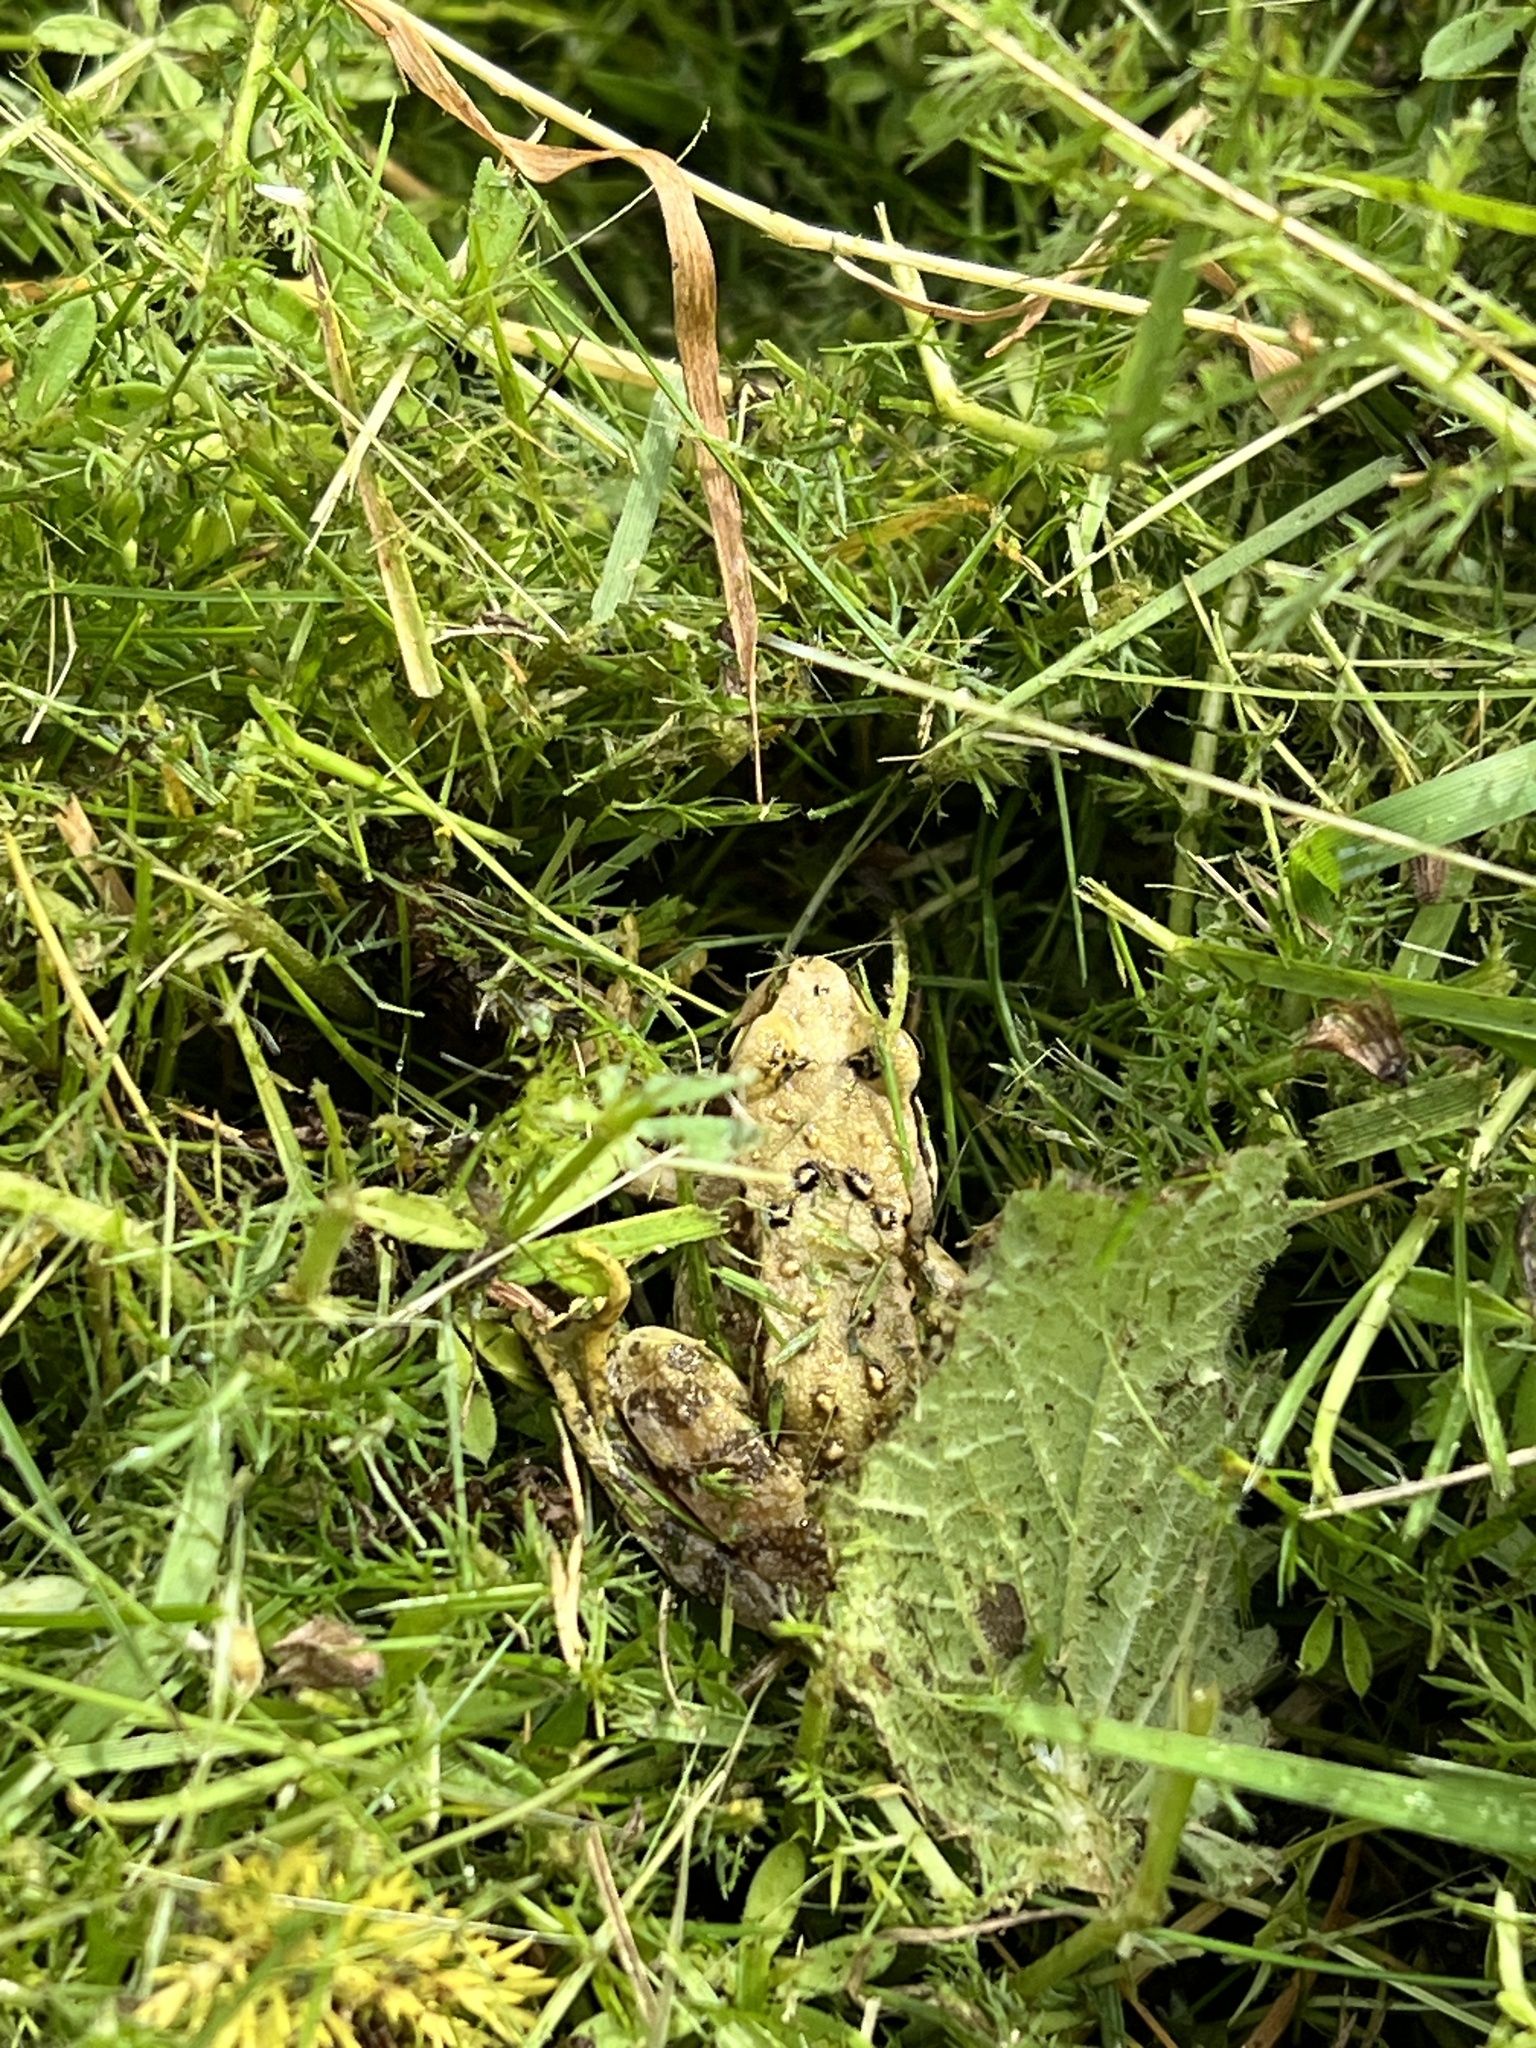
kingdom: Animalia
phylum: Chordata
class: Amphibia
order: Anura
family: Ranidae
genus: Rana
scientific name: Rana temporaria
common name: Common frog
